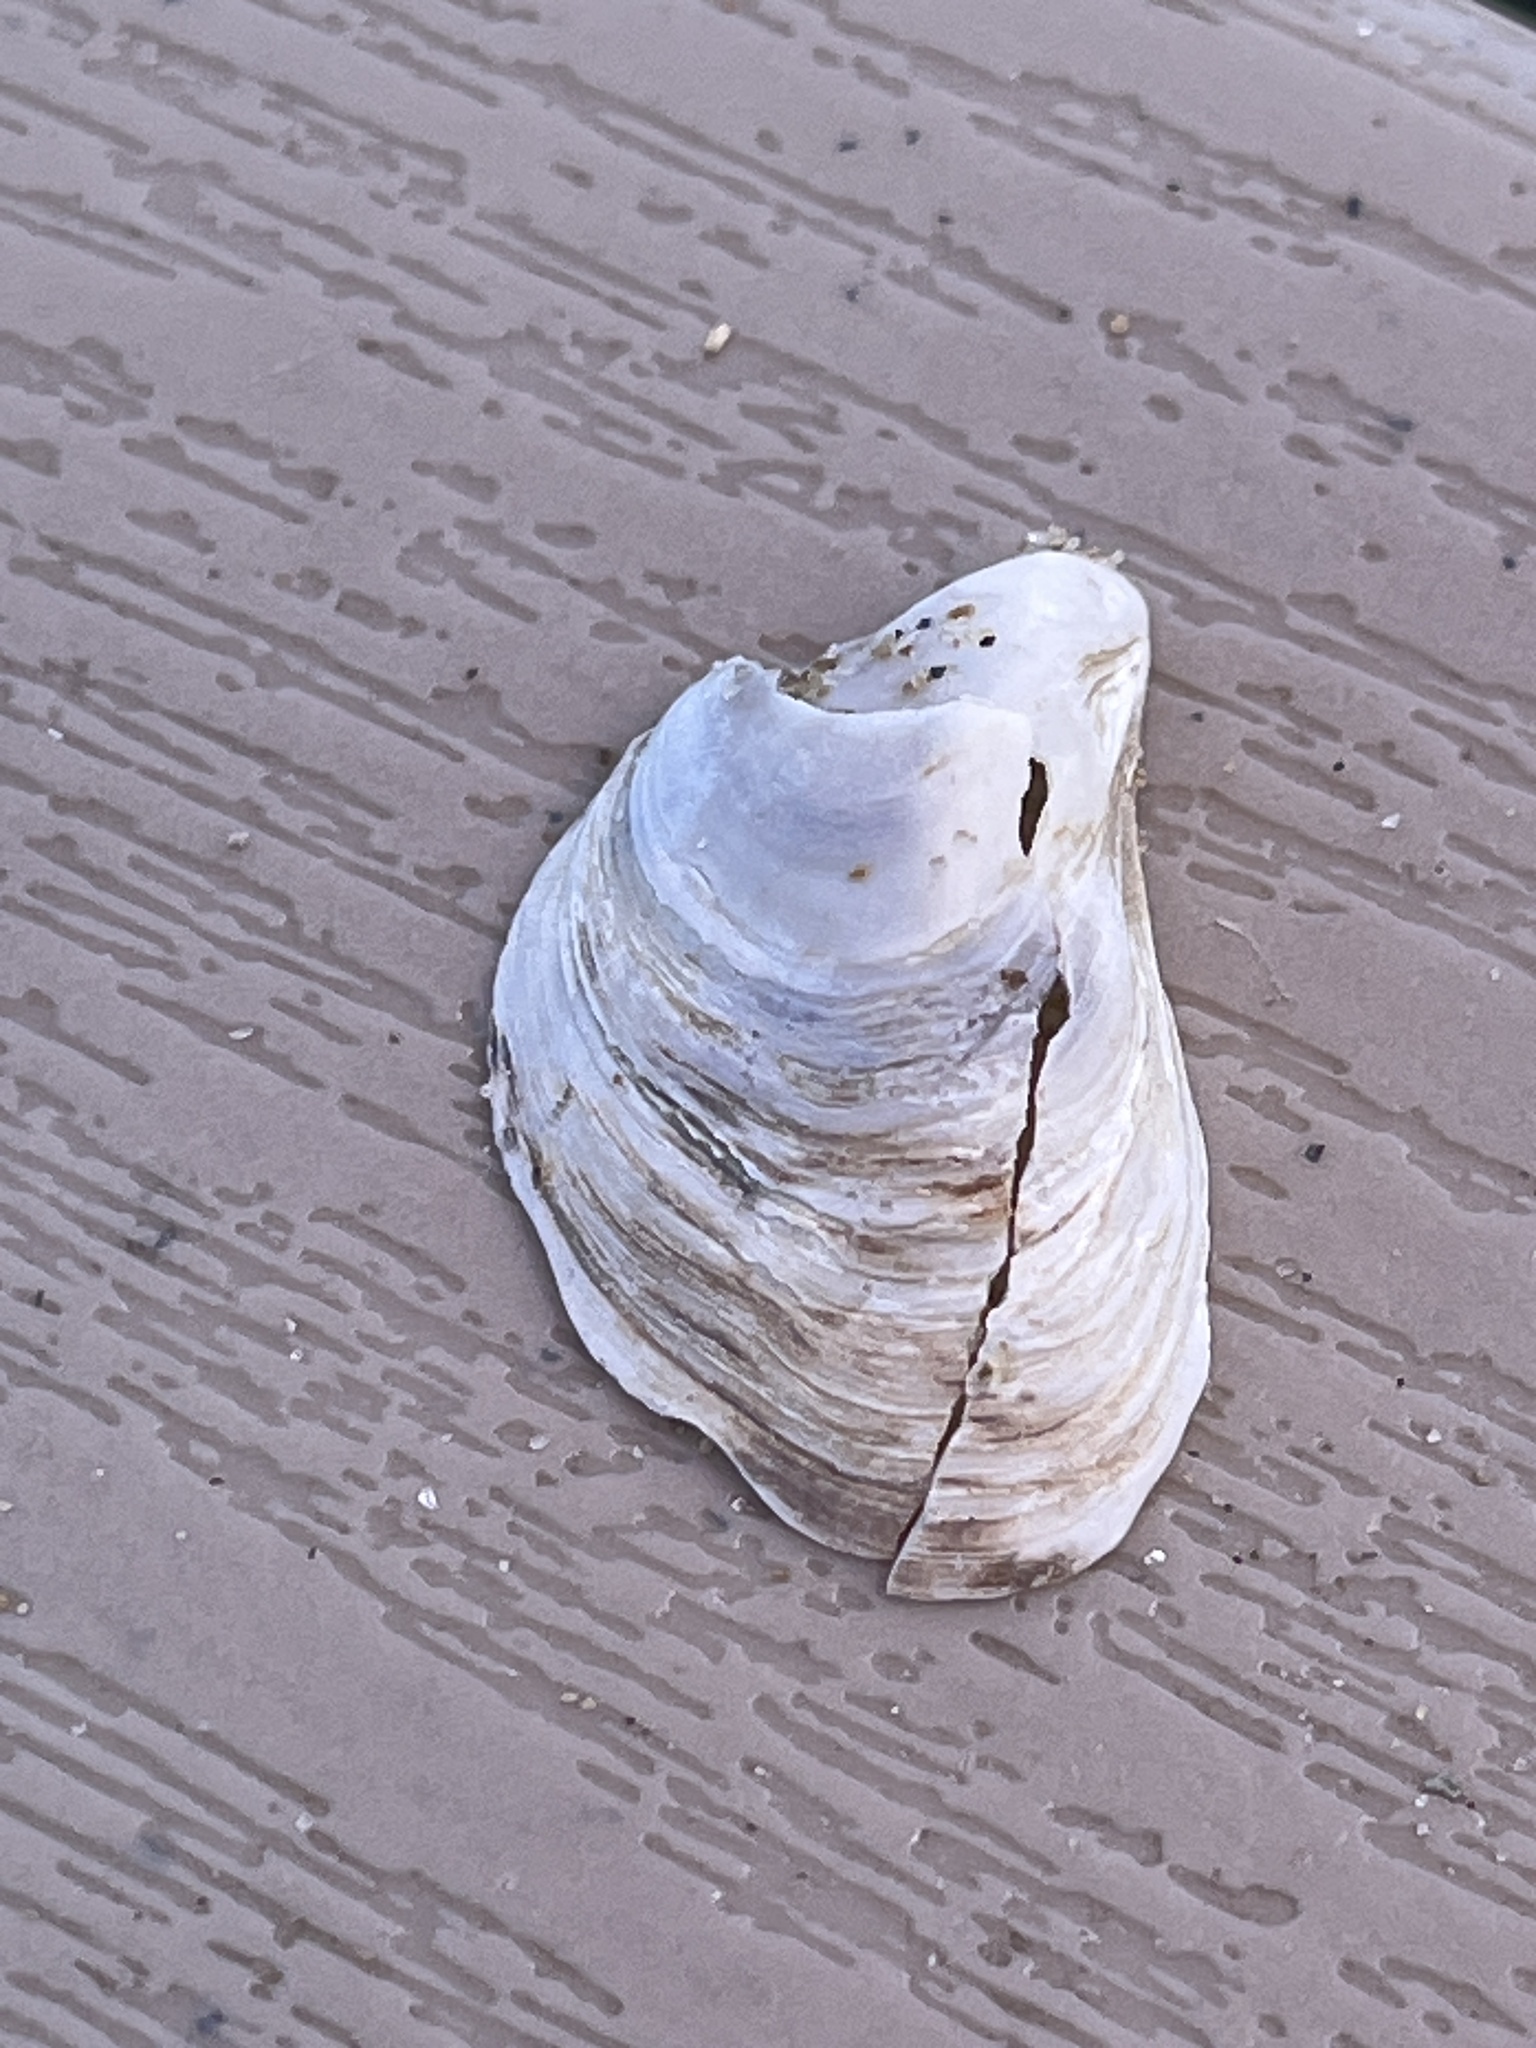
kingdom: Animalia
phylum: Mollusca
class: Bivalvia
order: Myida
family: Dreissenidae
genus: Dreissena
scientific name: Dreissena bugensis
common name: Quagga mussel
